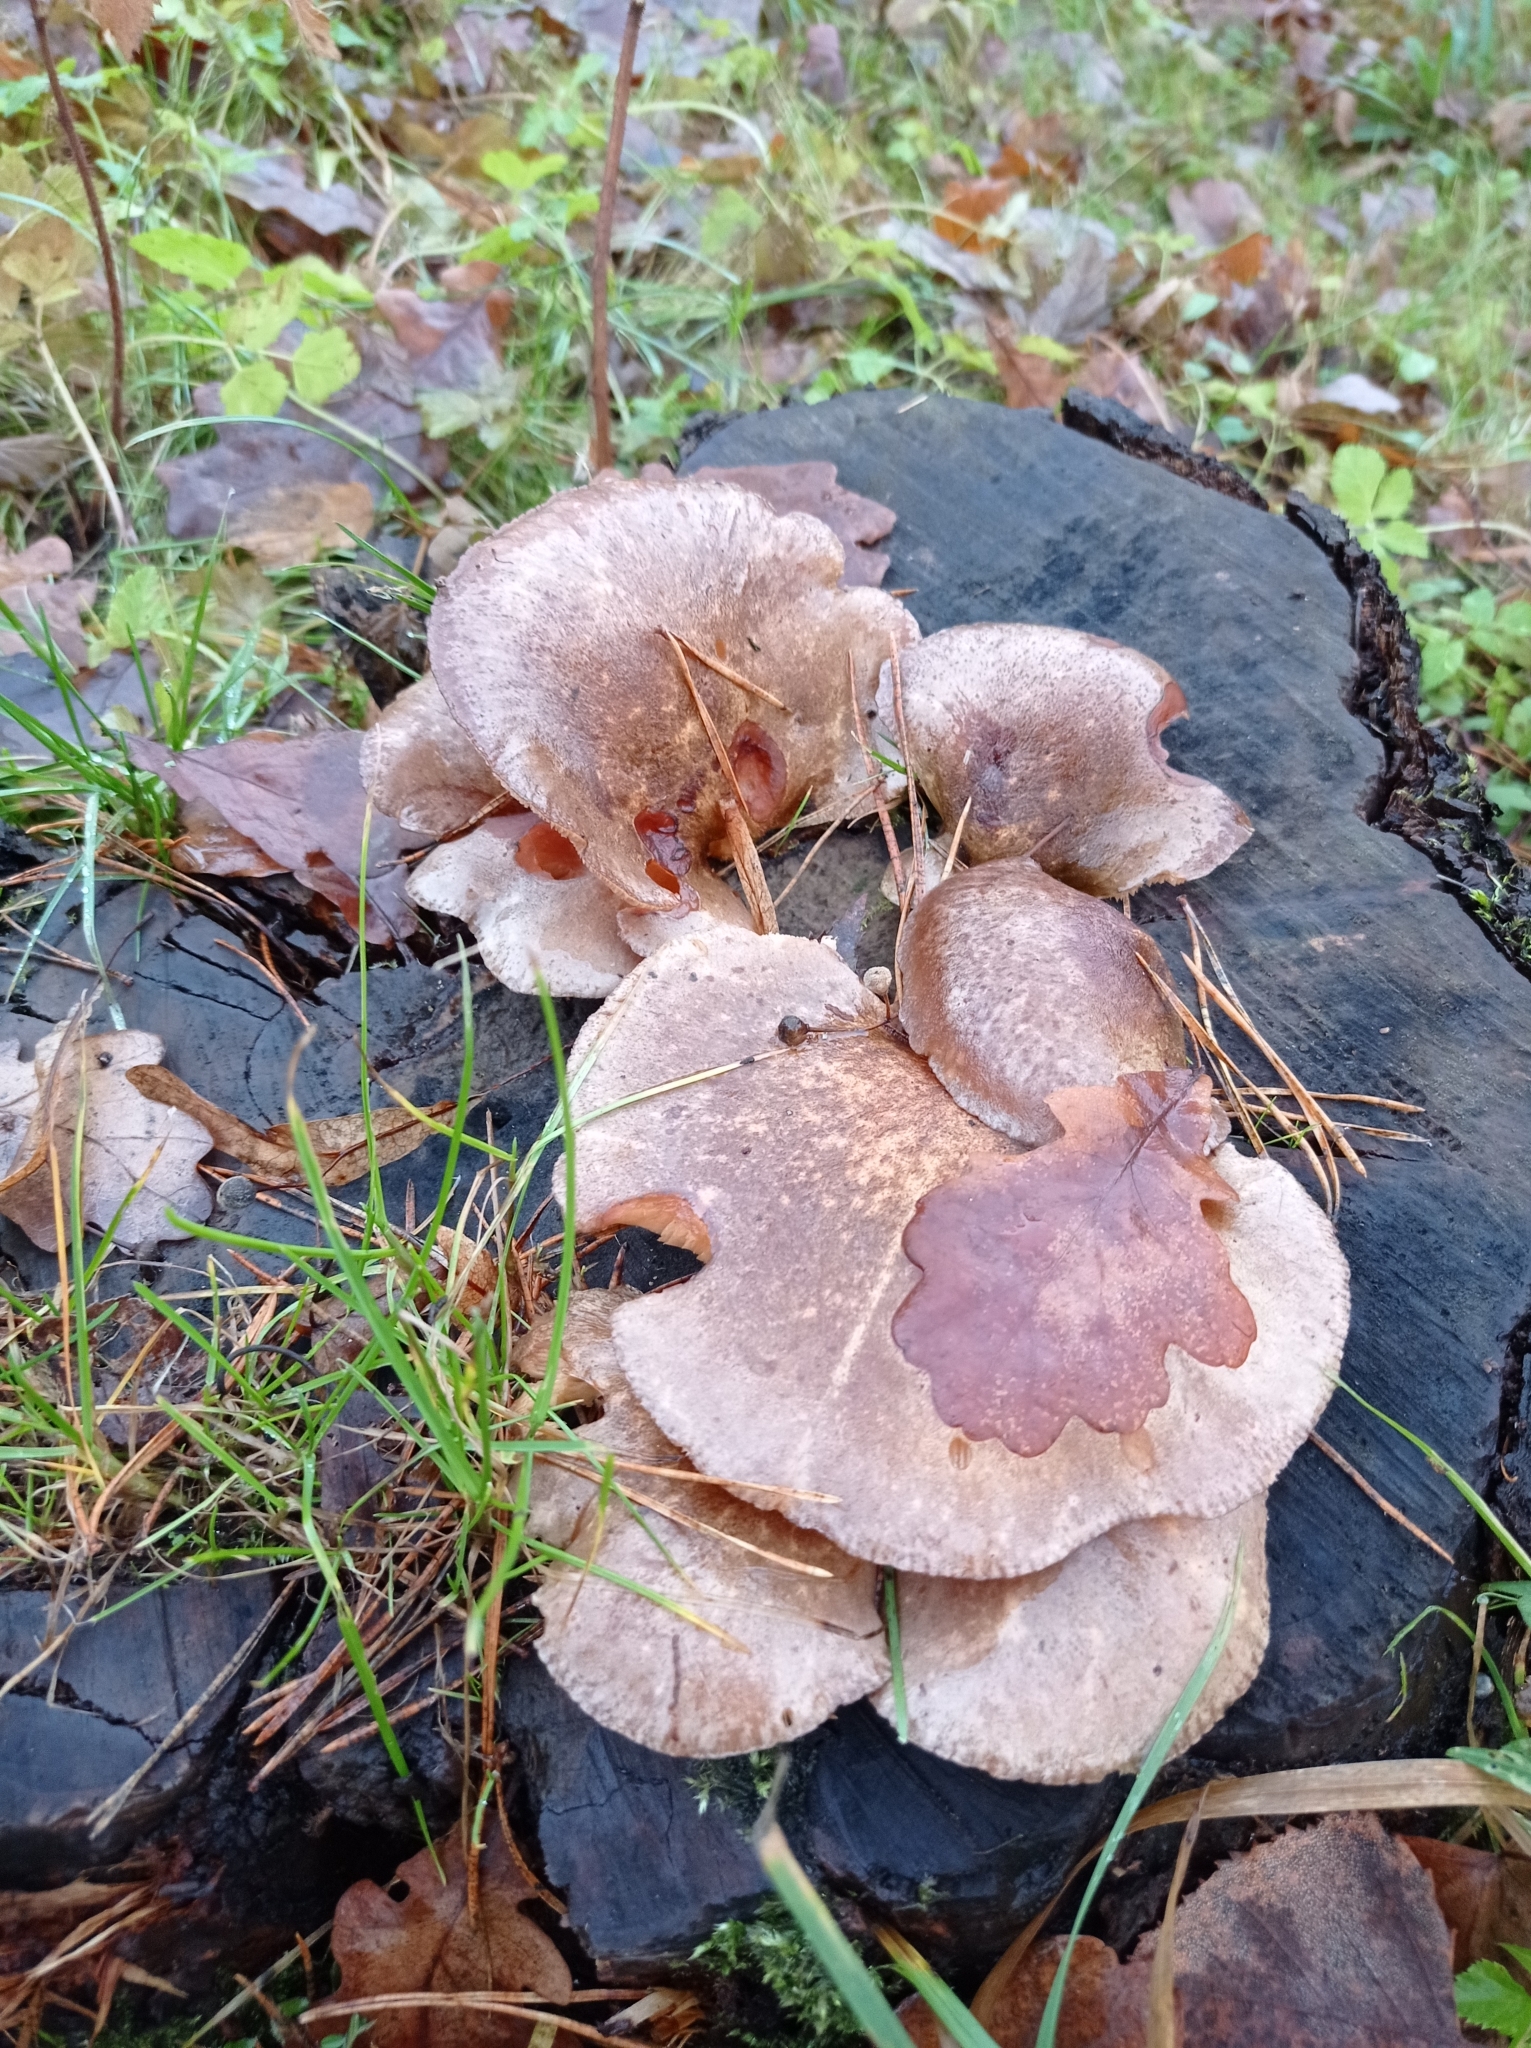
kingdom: Fungi
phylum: Basidiomycota
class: Agaricomycetes
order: Agaricales
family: Sarcomyxaceae
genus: Sarcomyxa
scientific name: Sarcomyxa serotina
